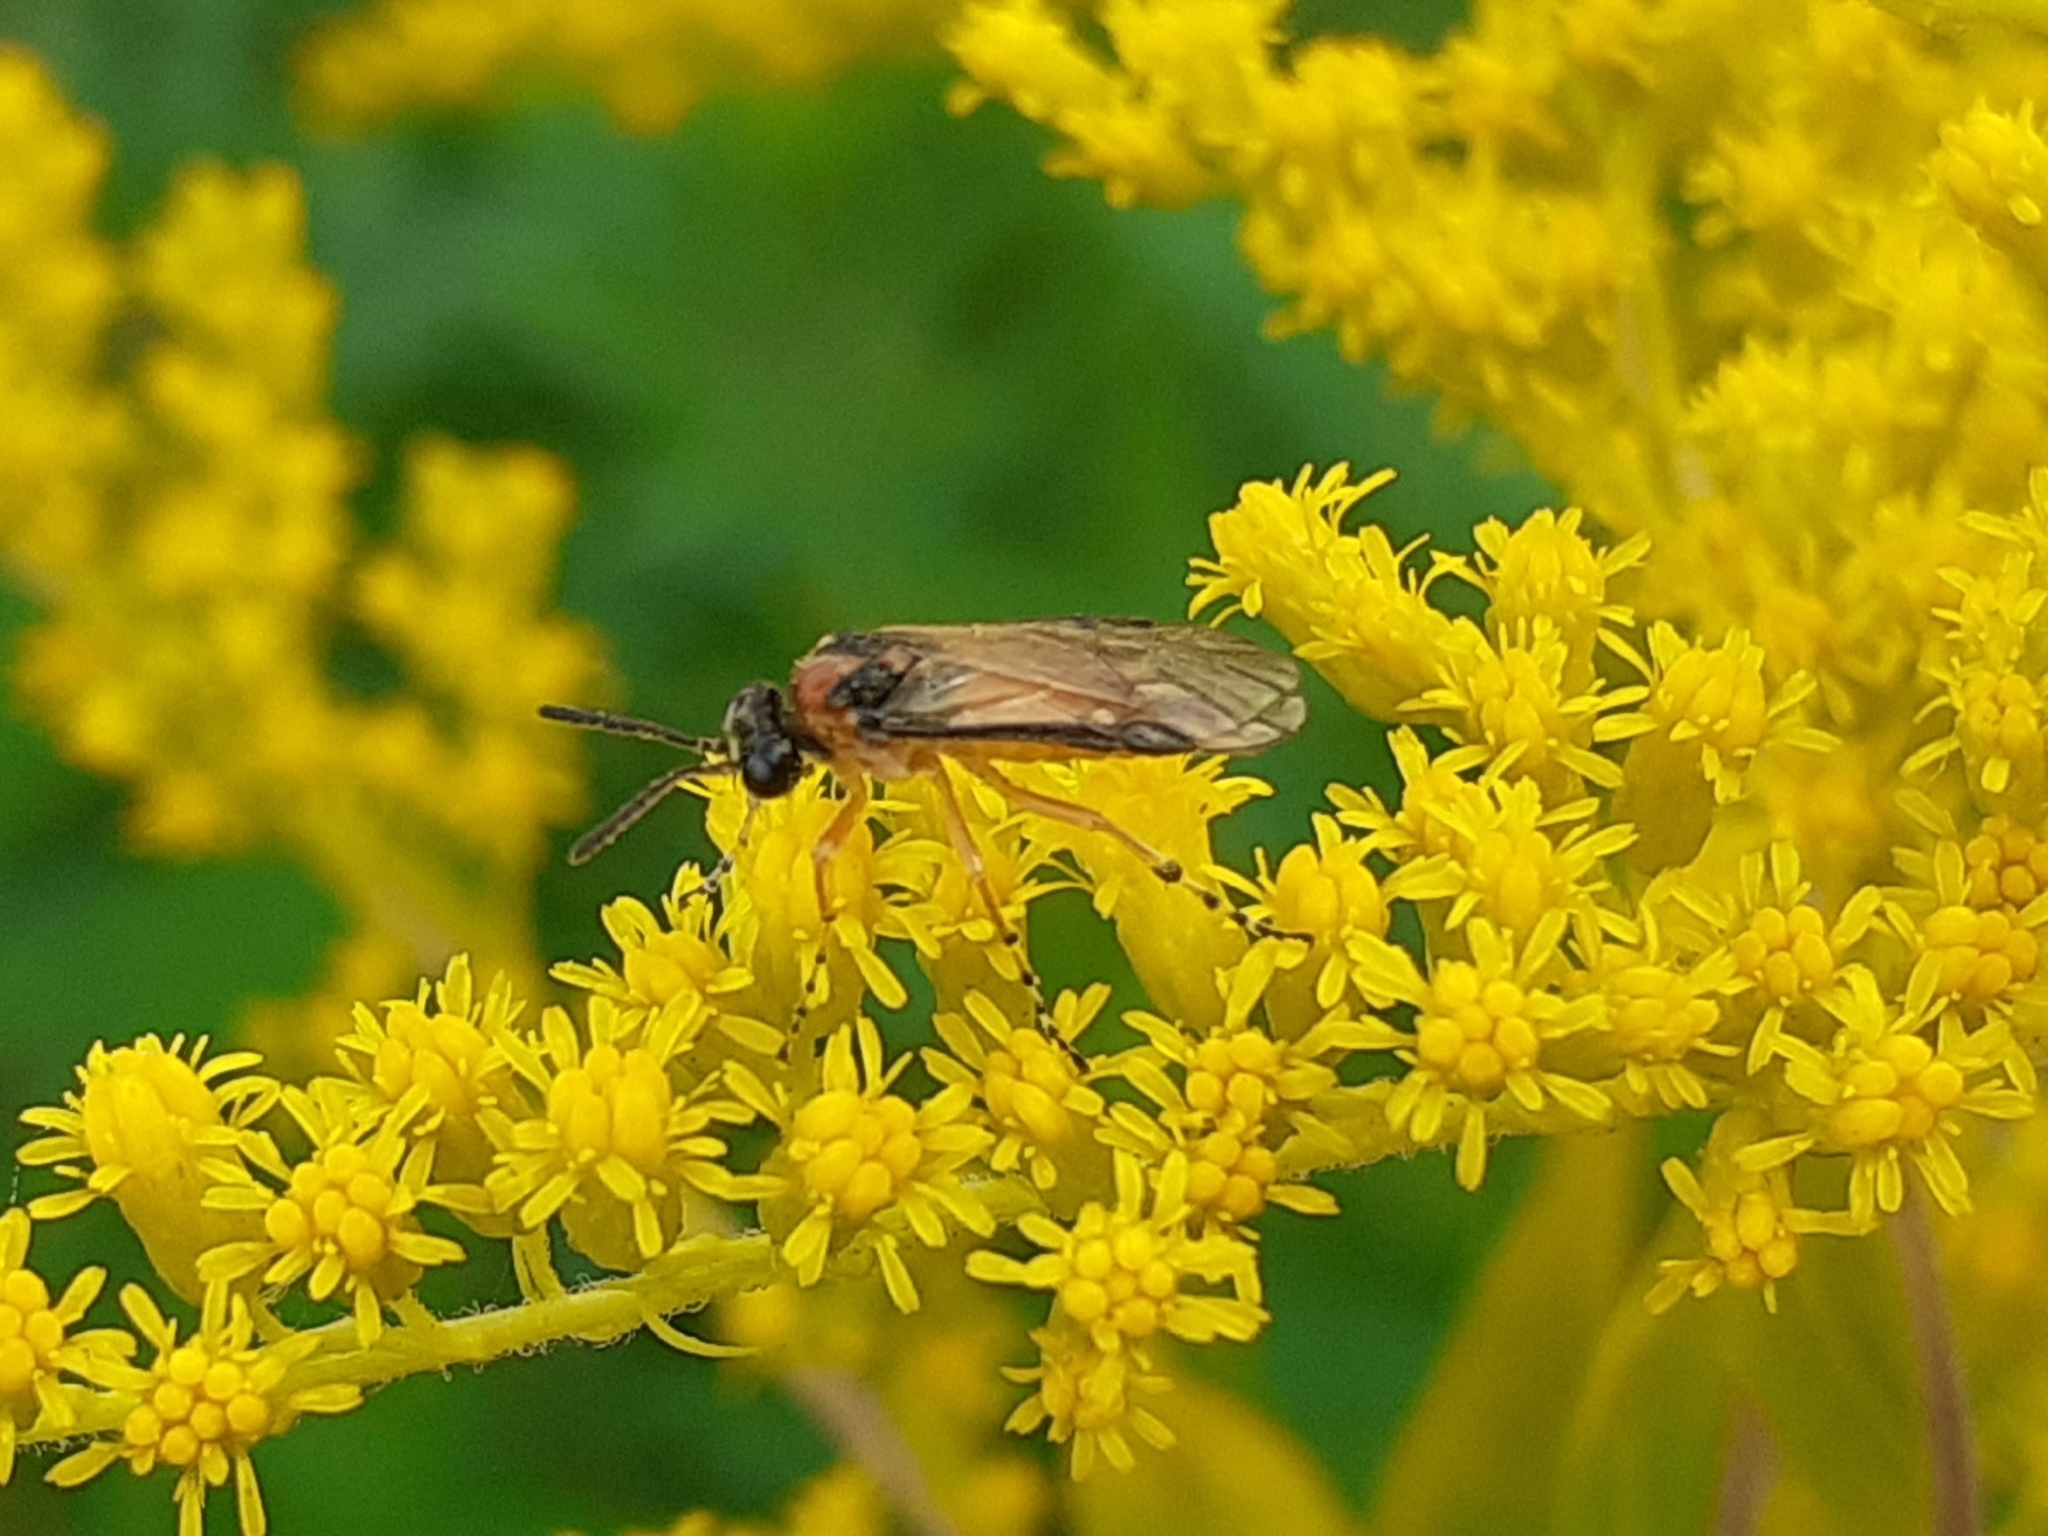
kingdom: Animalia
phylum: Arthropoda
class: Insecta
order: Hymenoptera
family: Tenthredinidae
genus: Athalia
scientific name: Athalia rosae
